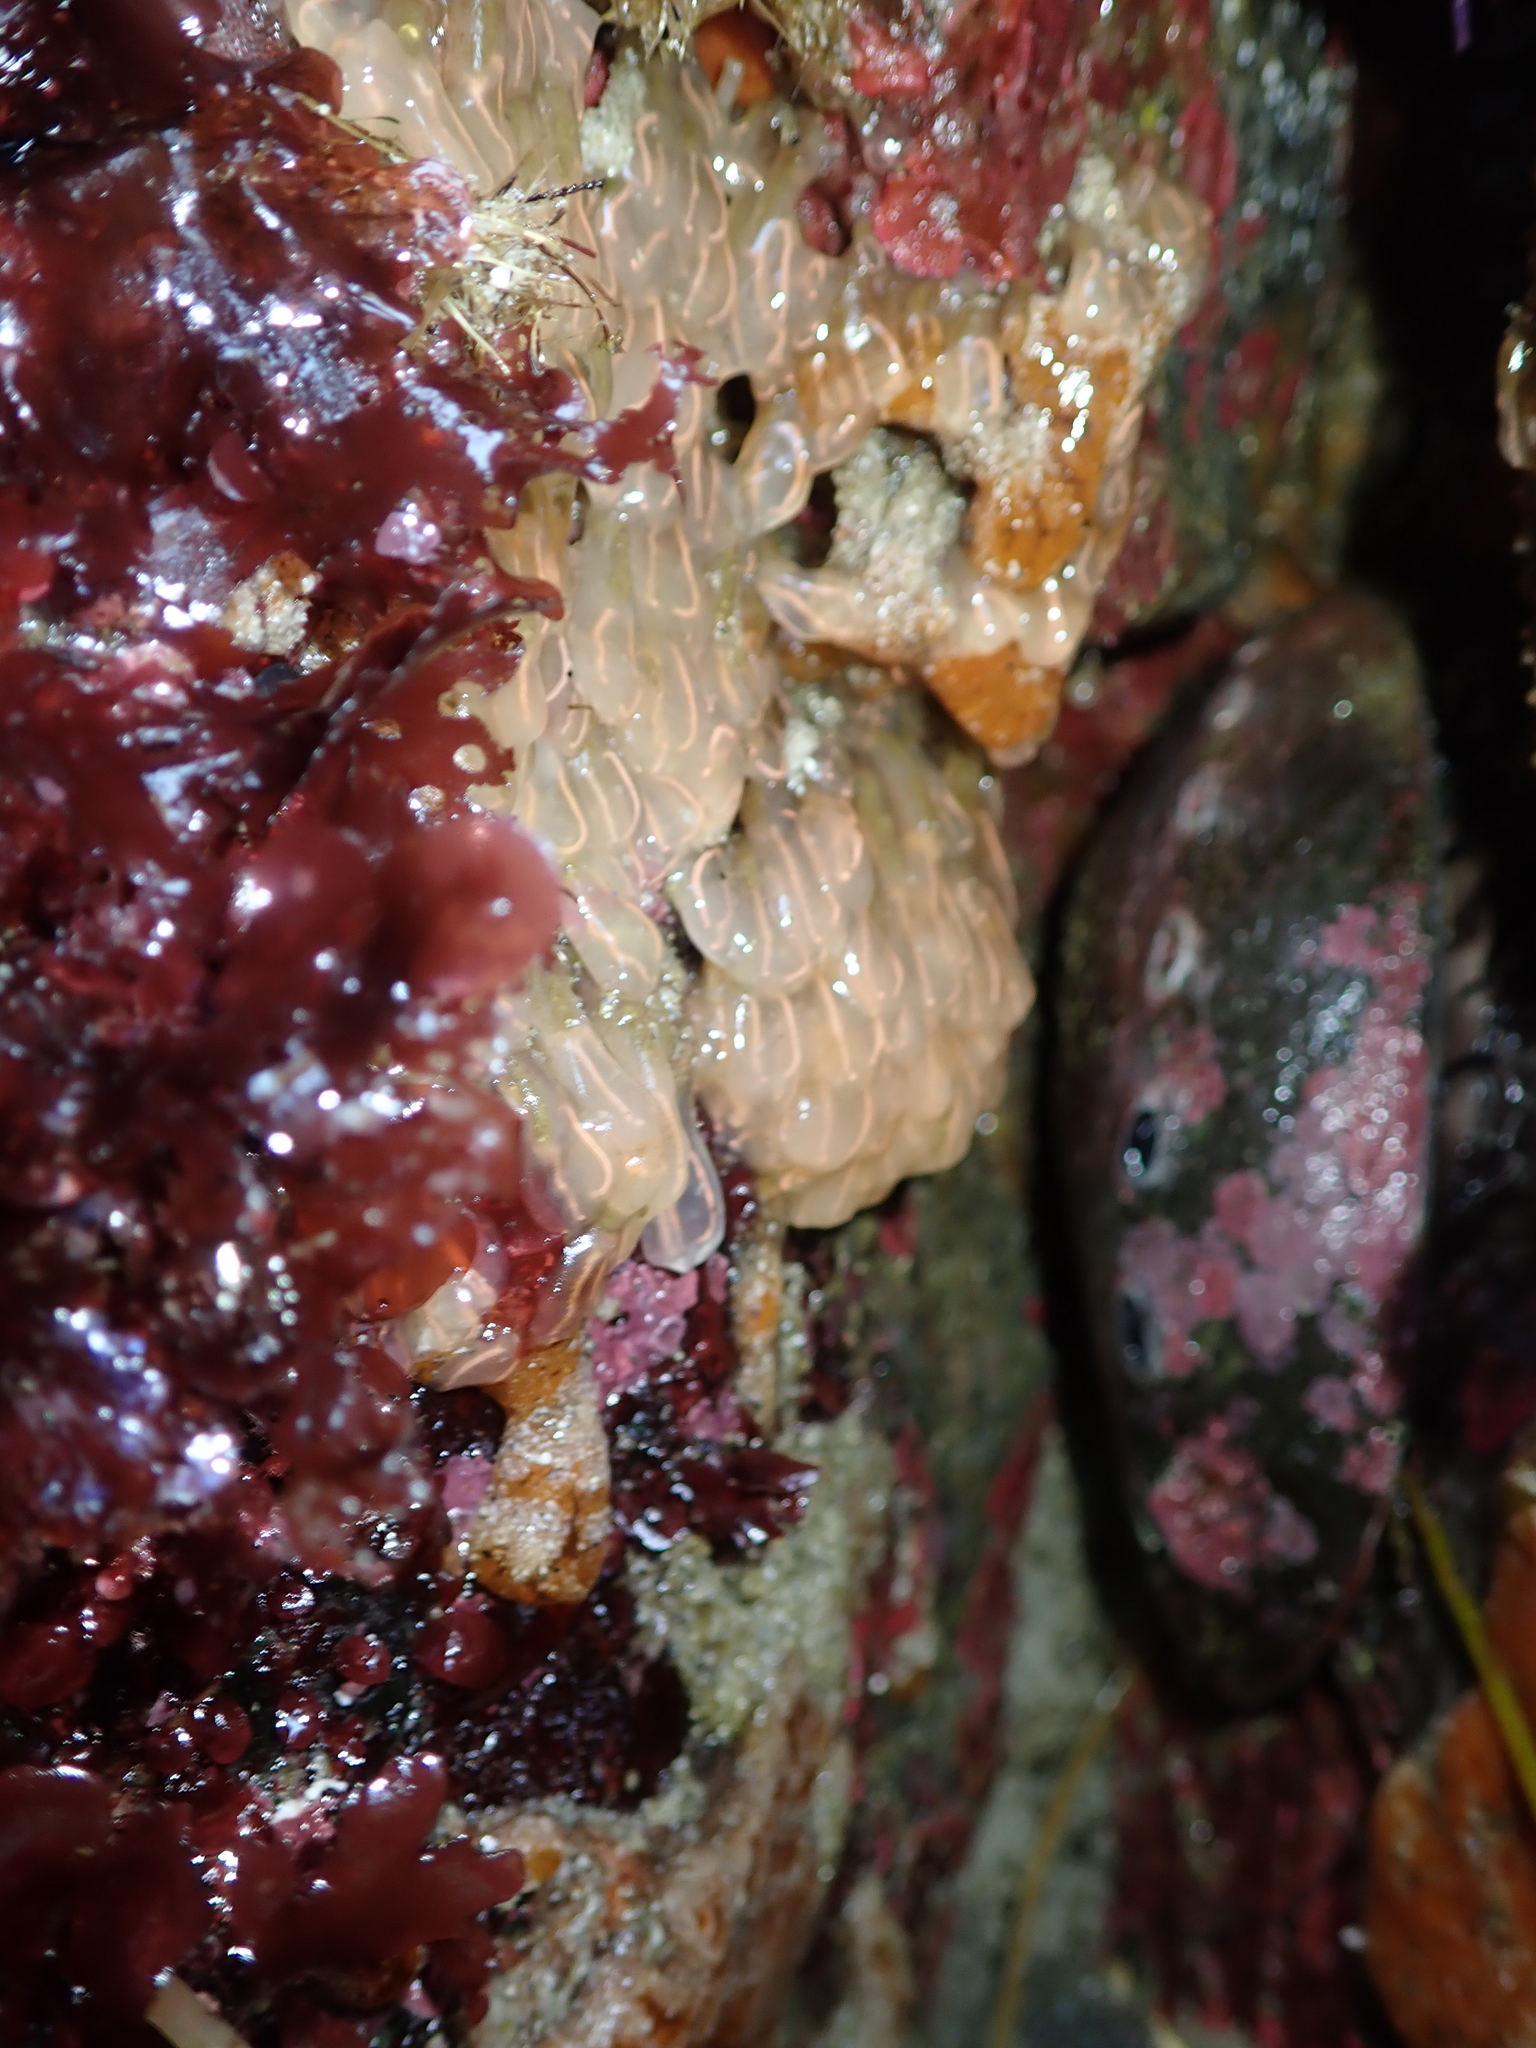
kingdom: Animalia
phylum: Chordata
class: Ascidiacea
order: Aplousobranchia
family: Clavelinidae
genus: Clavelina
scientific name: Clavelina huntsmani
